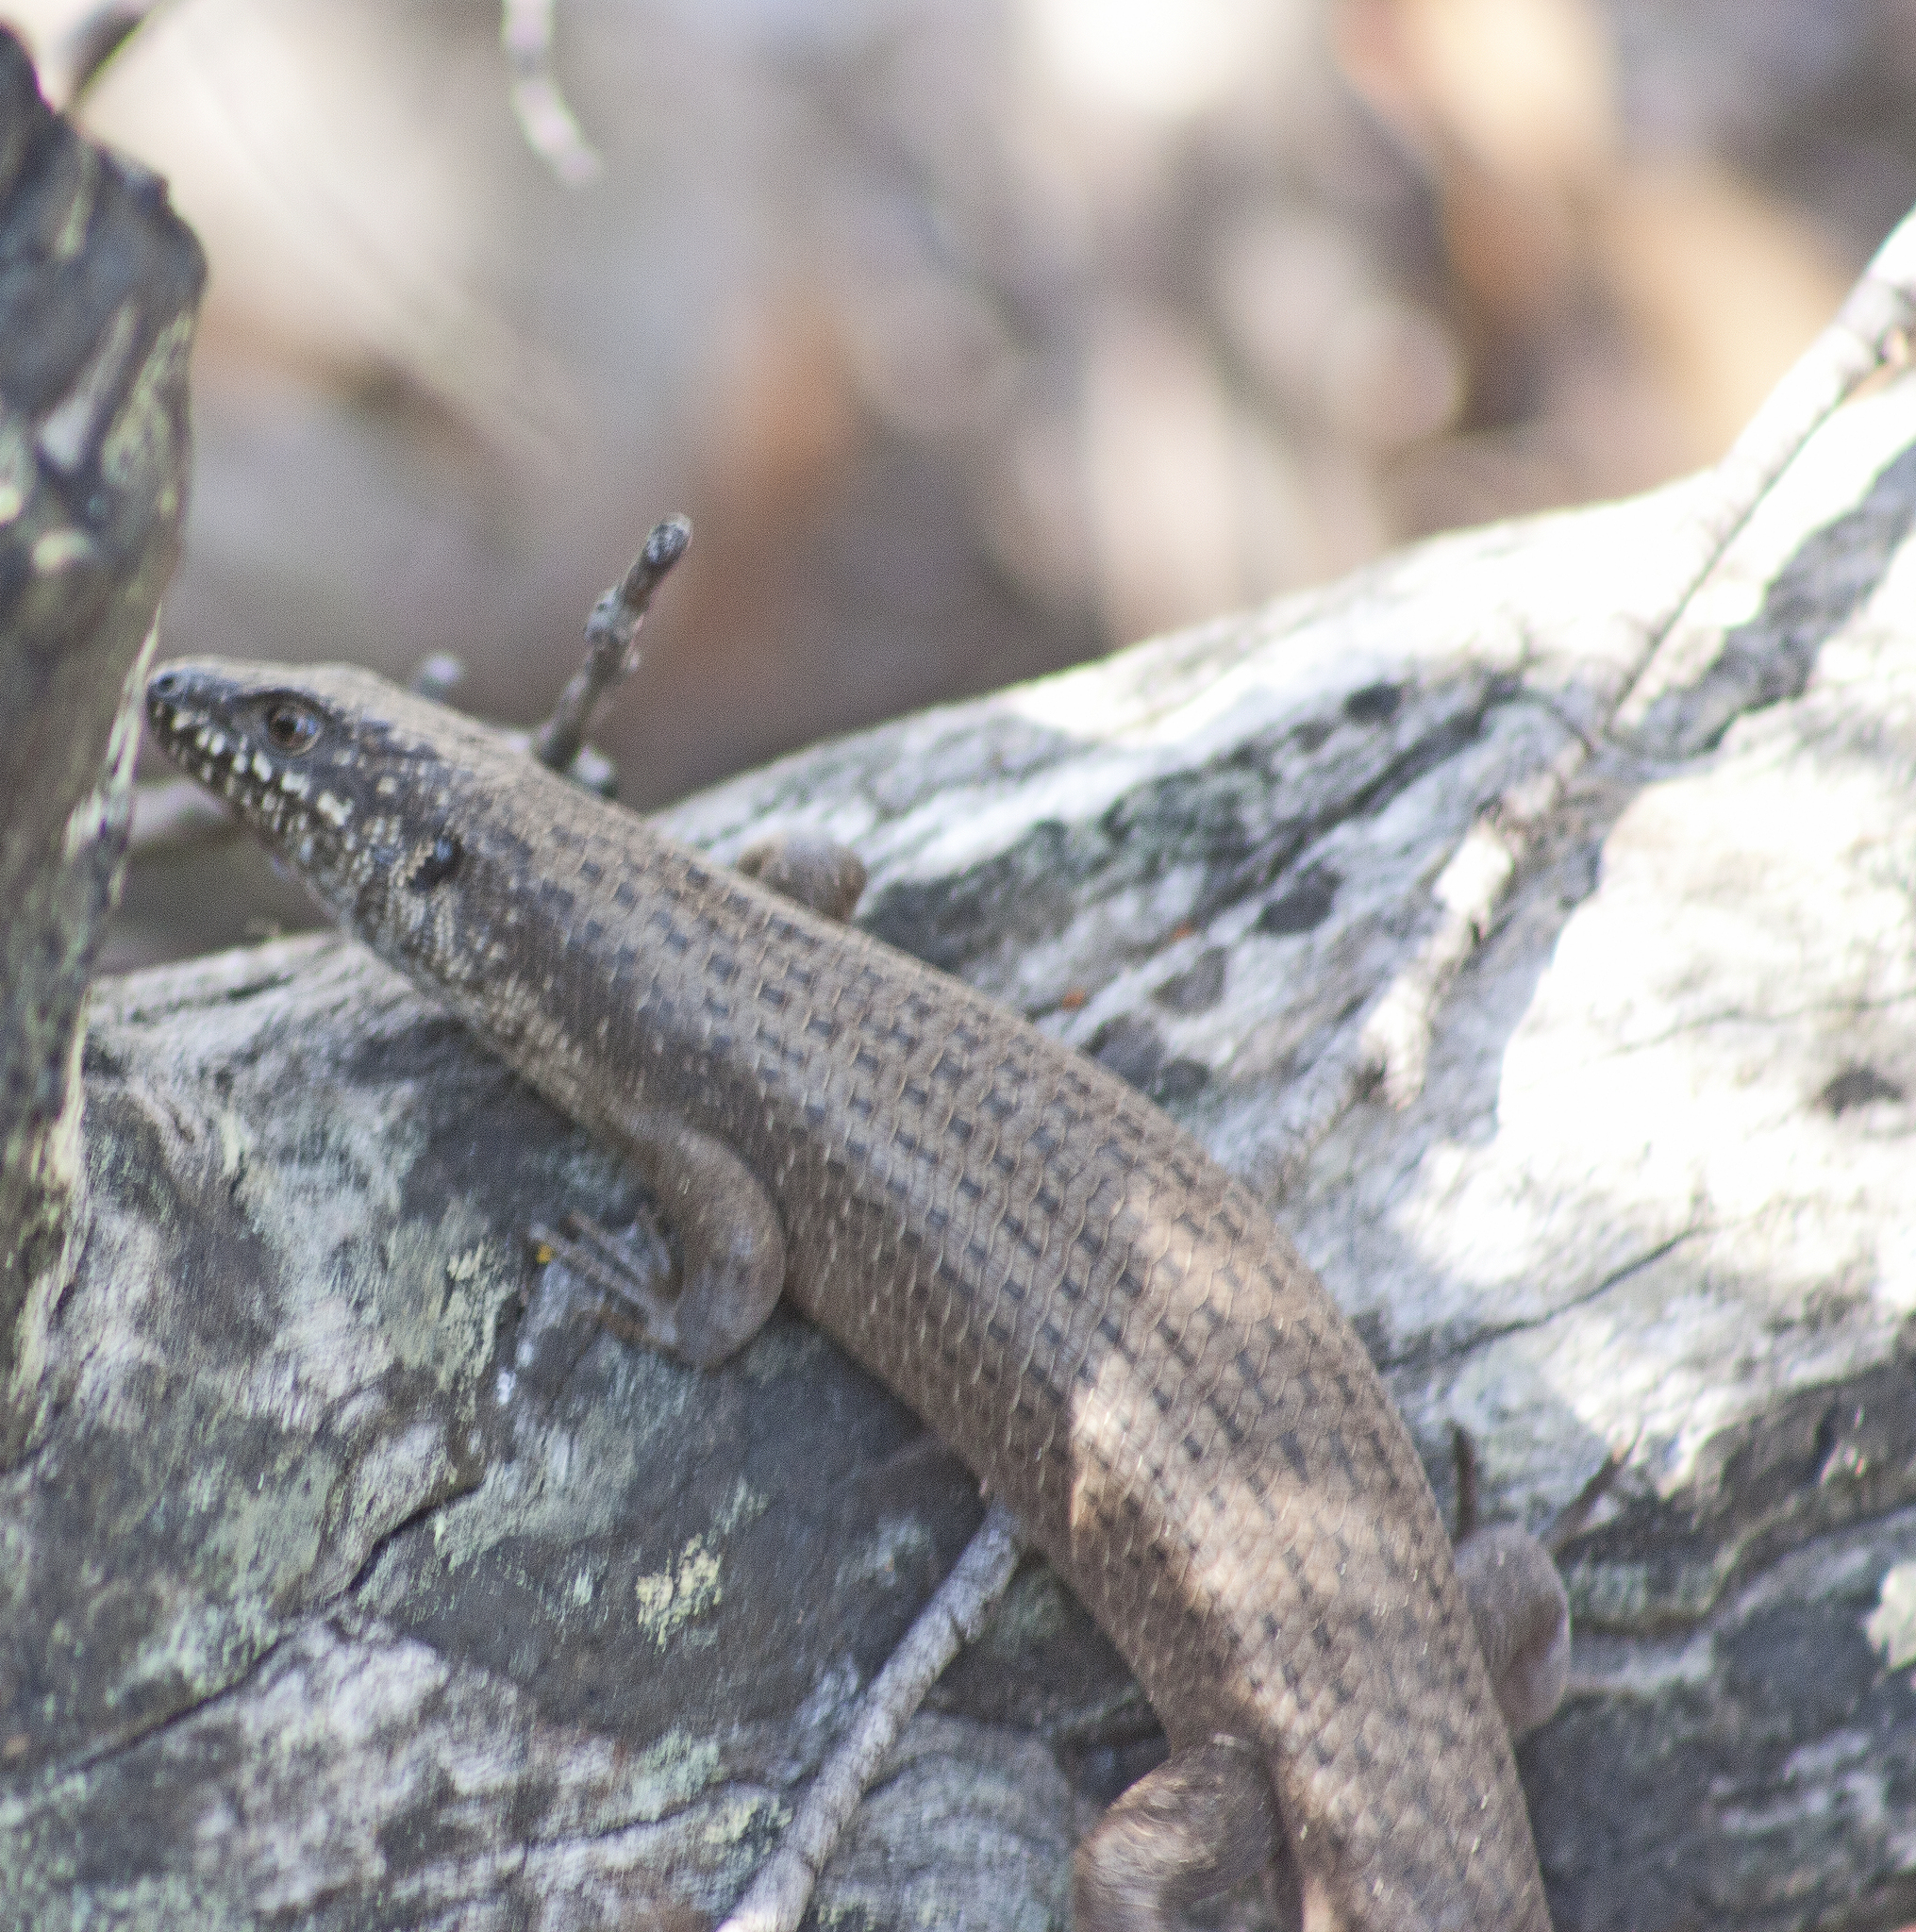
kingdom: Animalia
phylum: Chordata
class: Squamata
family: Scincidae
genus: Egernia
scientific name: Egernia mcpheei
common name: Eastern crevice skink
